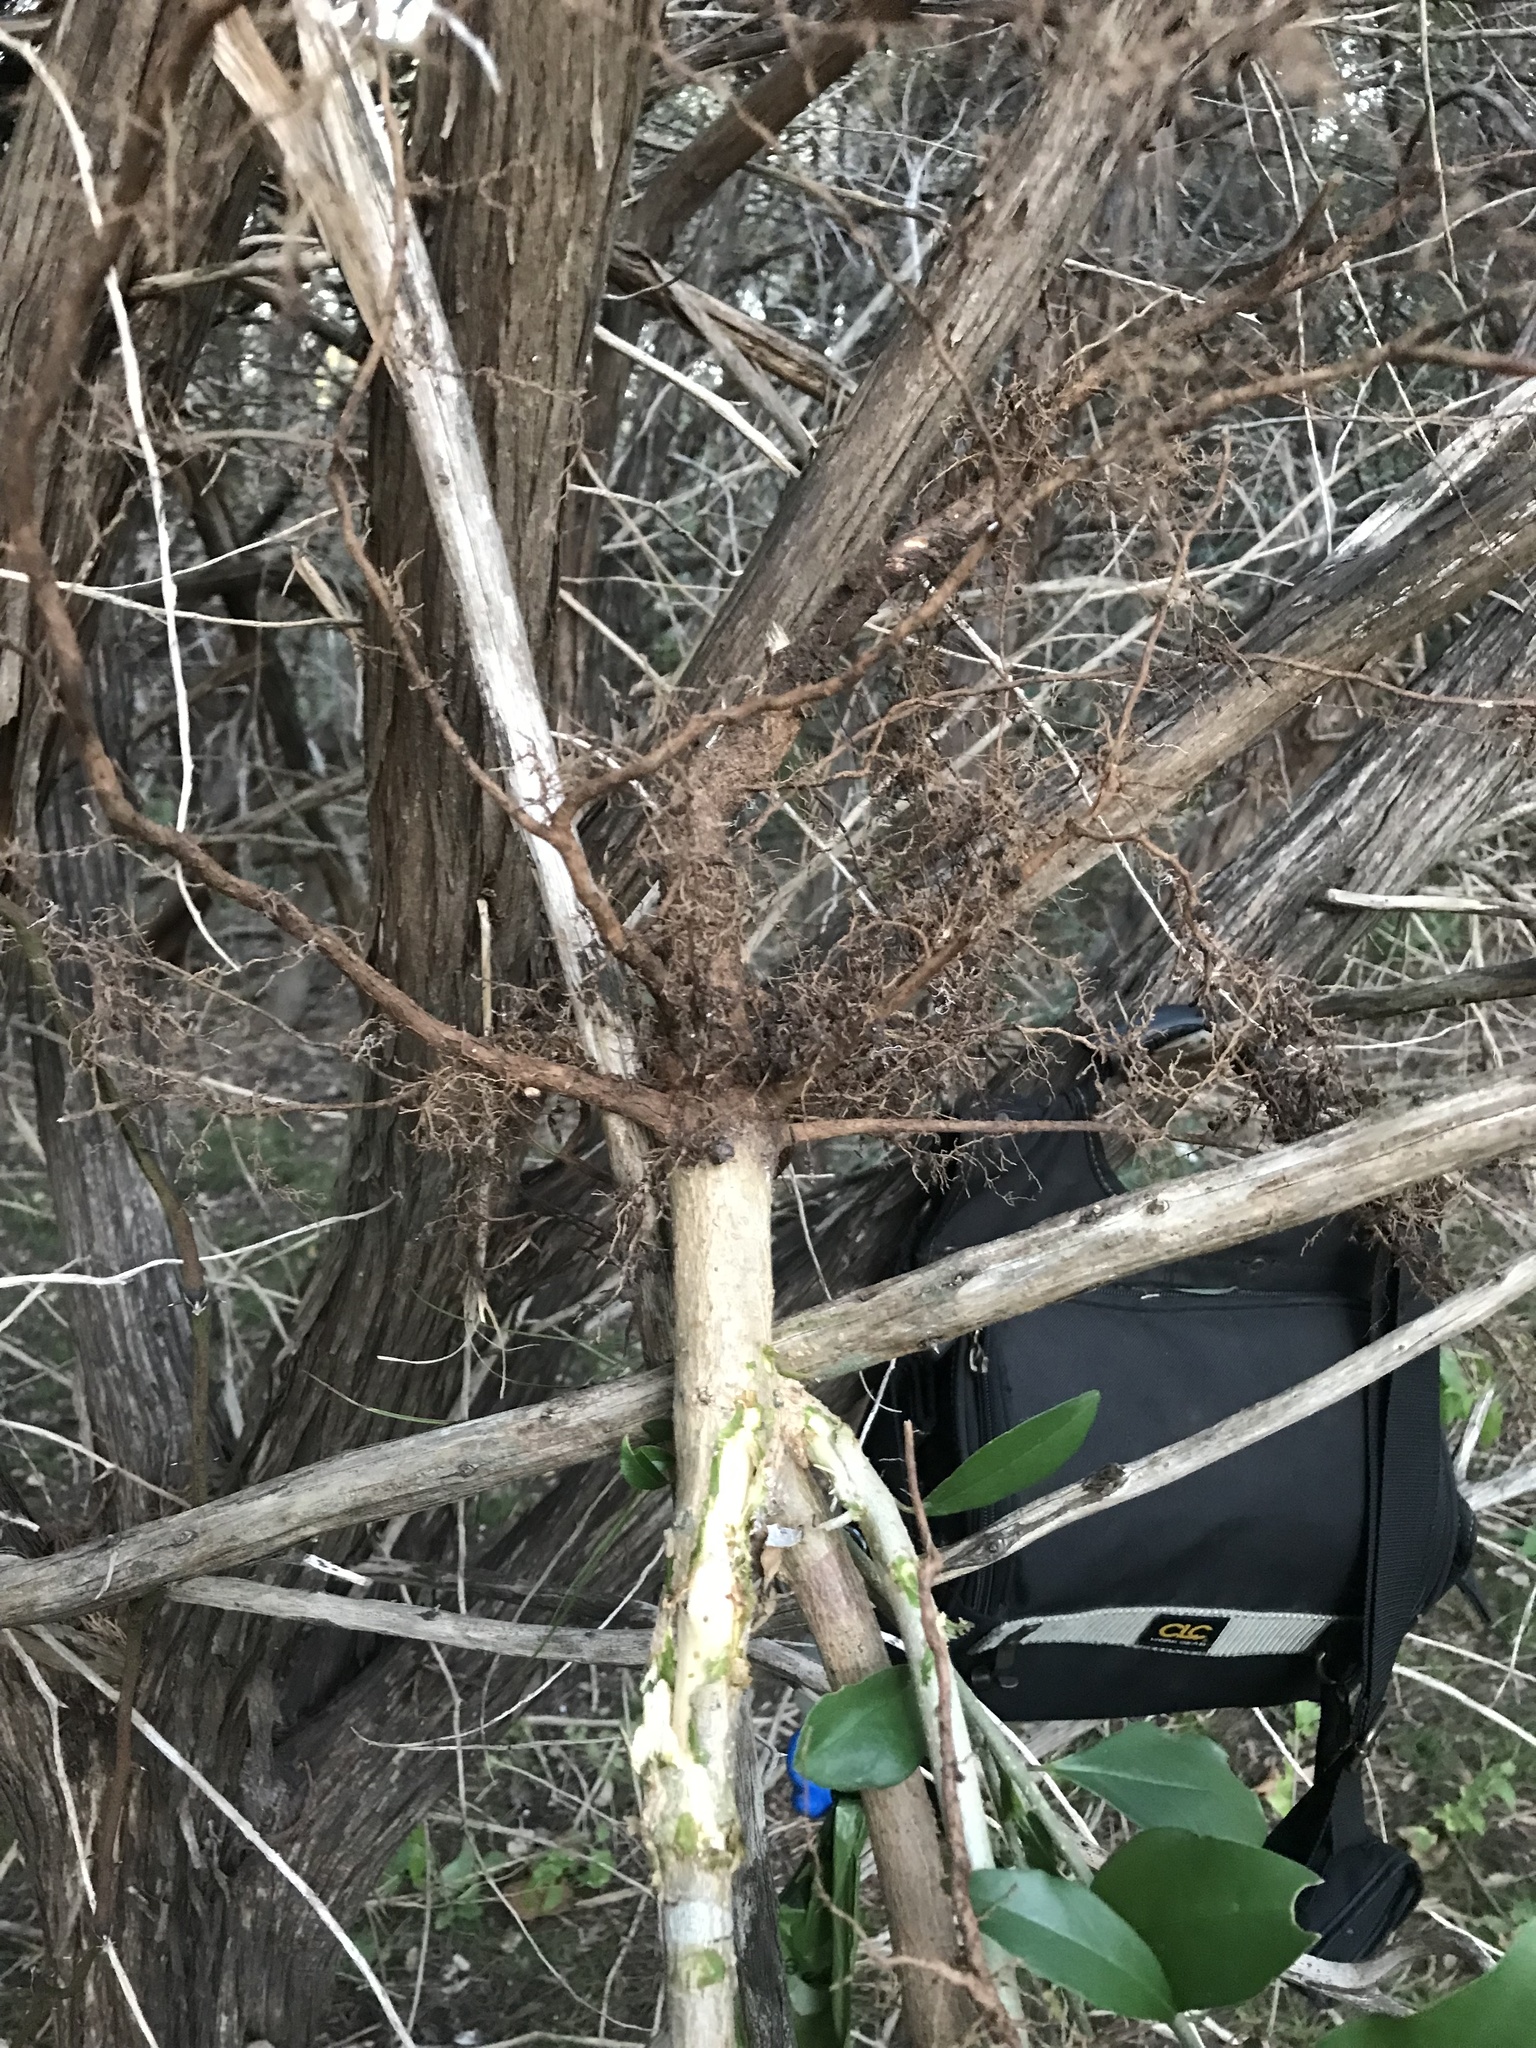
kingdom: Plantae
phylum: Tracheophyta
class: Magnoliopsida
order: Lamiales
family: Oleaceae
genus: Ligustrum
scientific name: Ligustrum lucidum
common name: Glossy privet
